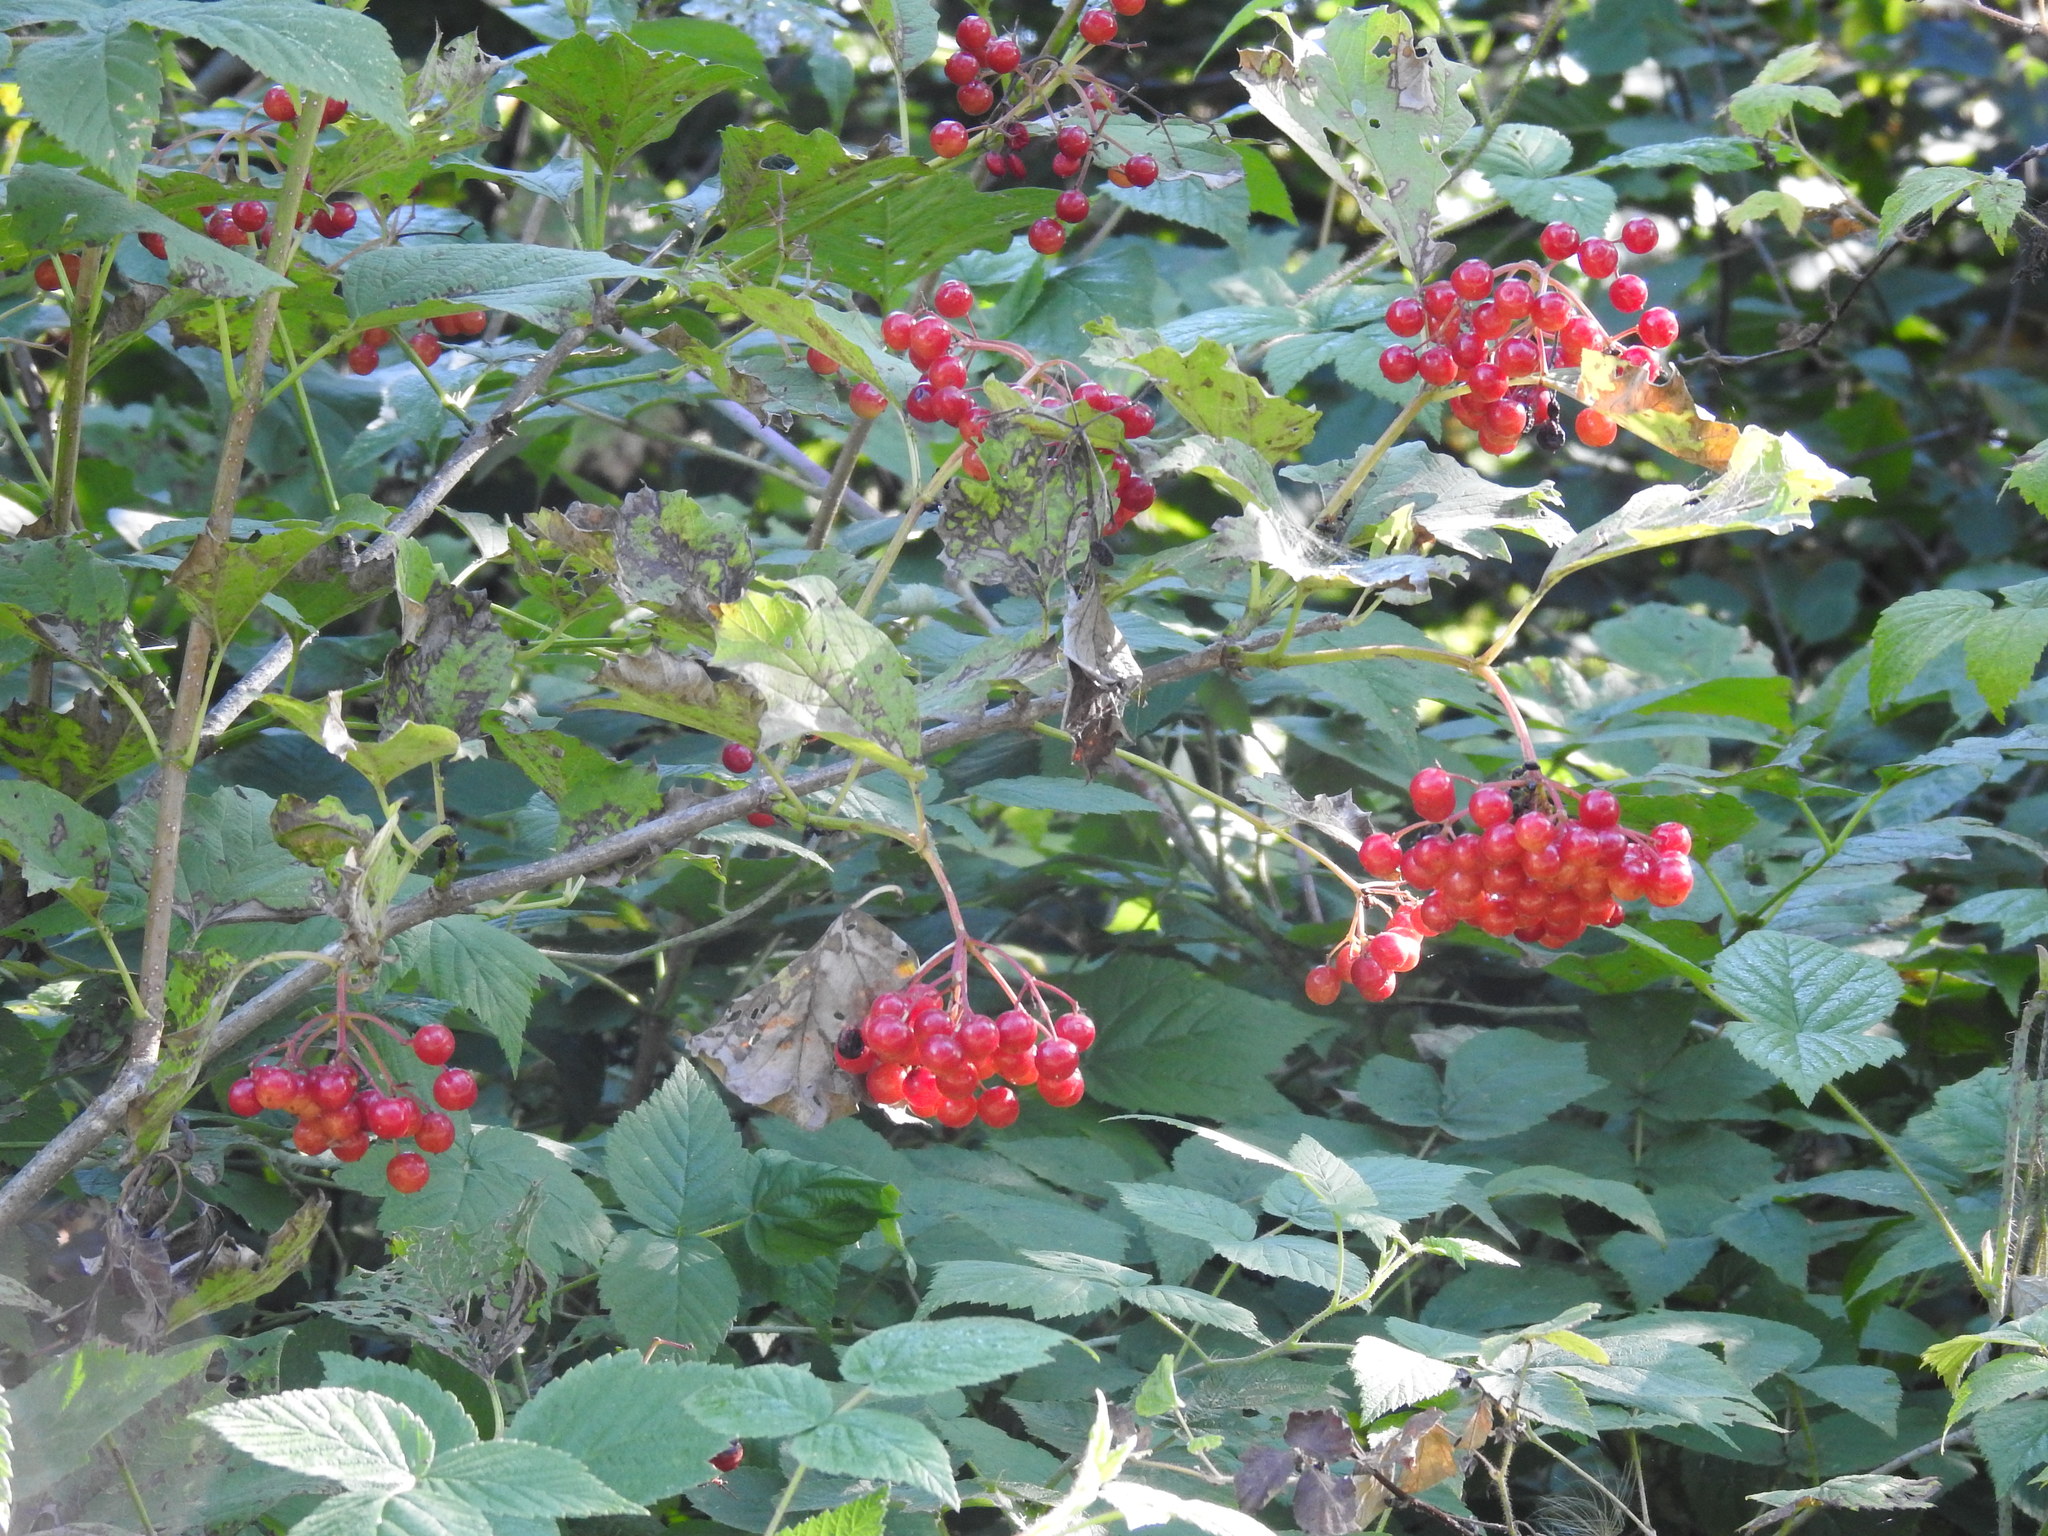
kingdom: Plantae
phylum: Tracheophyta
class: Magnoliopsida
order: Dipsacales
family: Viburnaceae
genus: Viburnum
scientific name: Viburnum trilobum
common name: American cranberrybush
